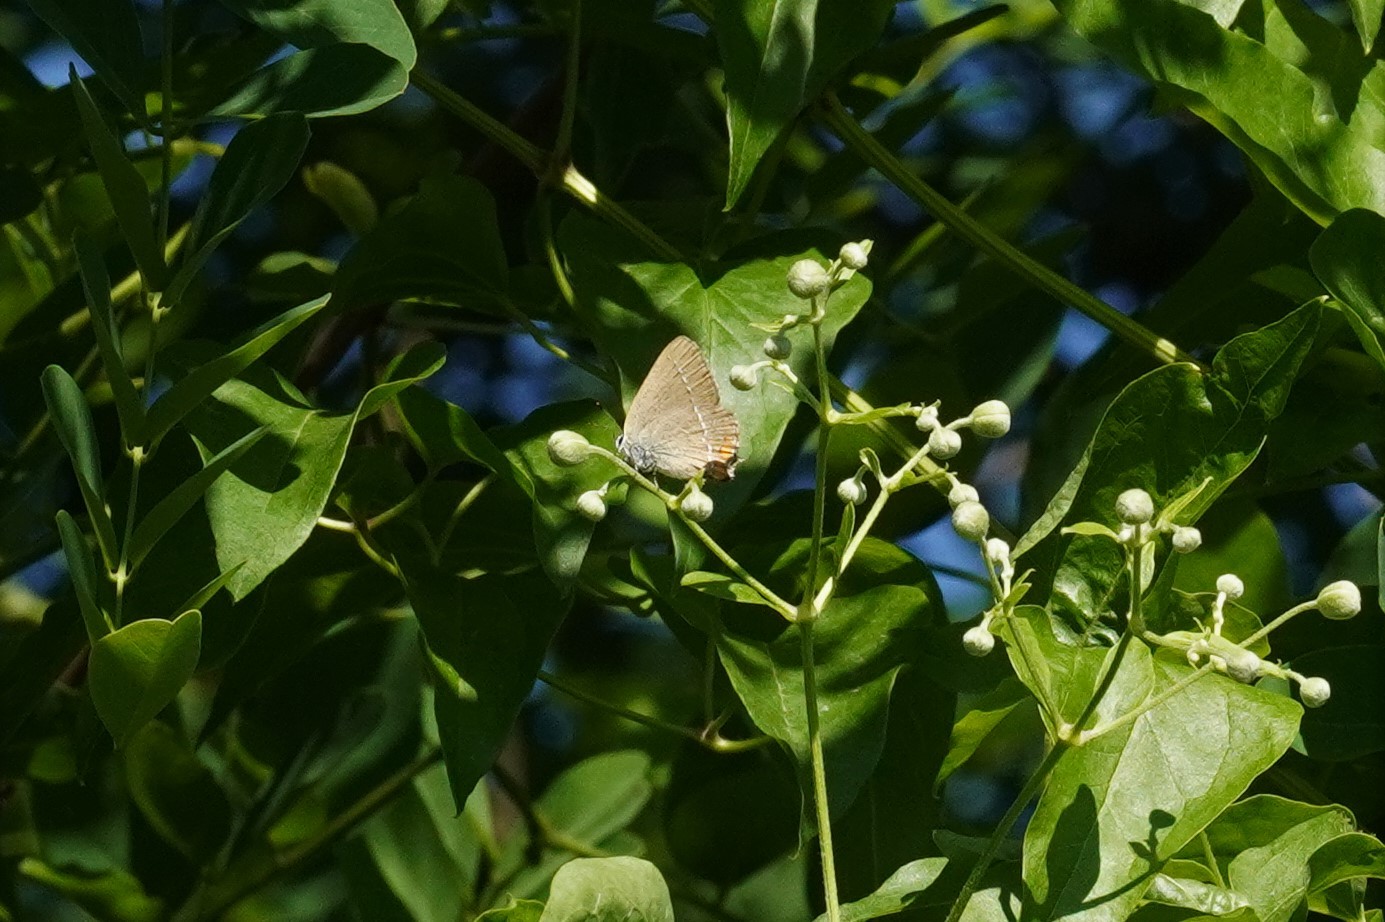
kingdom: Animalia
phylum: Arthropoda
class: Insecta
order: Lepidoptera
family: Lycaenidae
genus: Strymon
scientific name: Strymon acaciae
